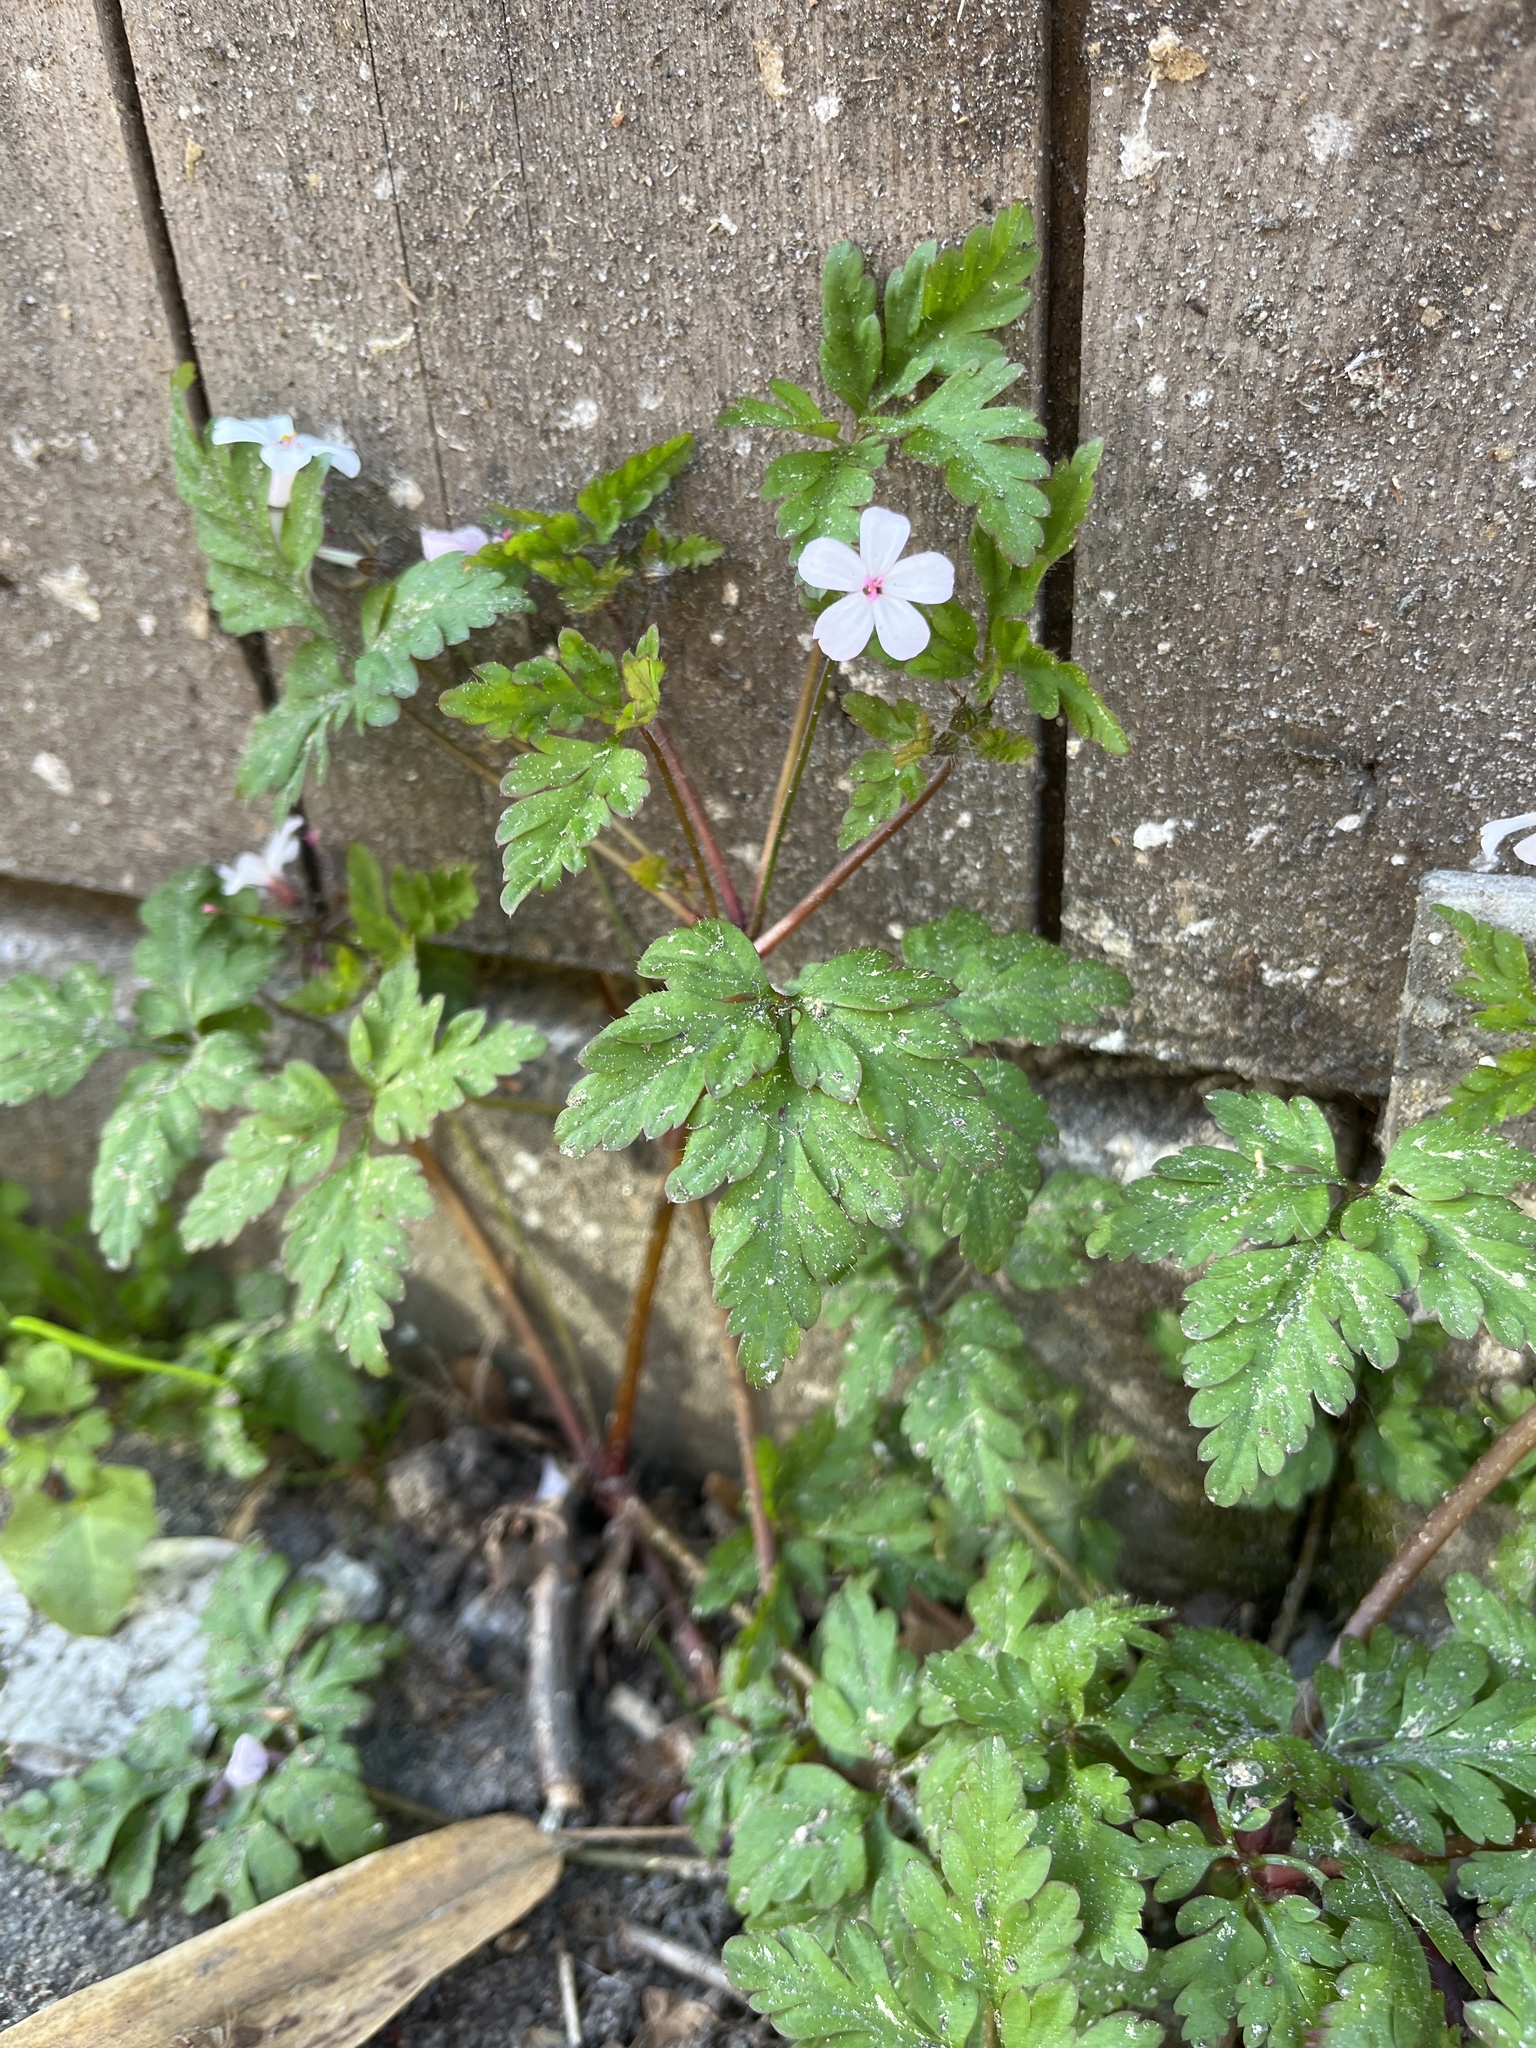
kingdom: Plantae
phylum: Tracheophyta
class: Magnoliopsida
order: Geraniales
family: Geraniaceae
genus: Geranium
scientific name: Geranium robertianum
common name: Herb-robert
